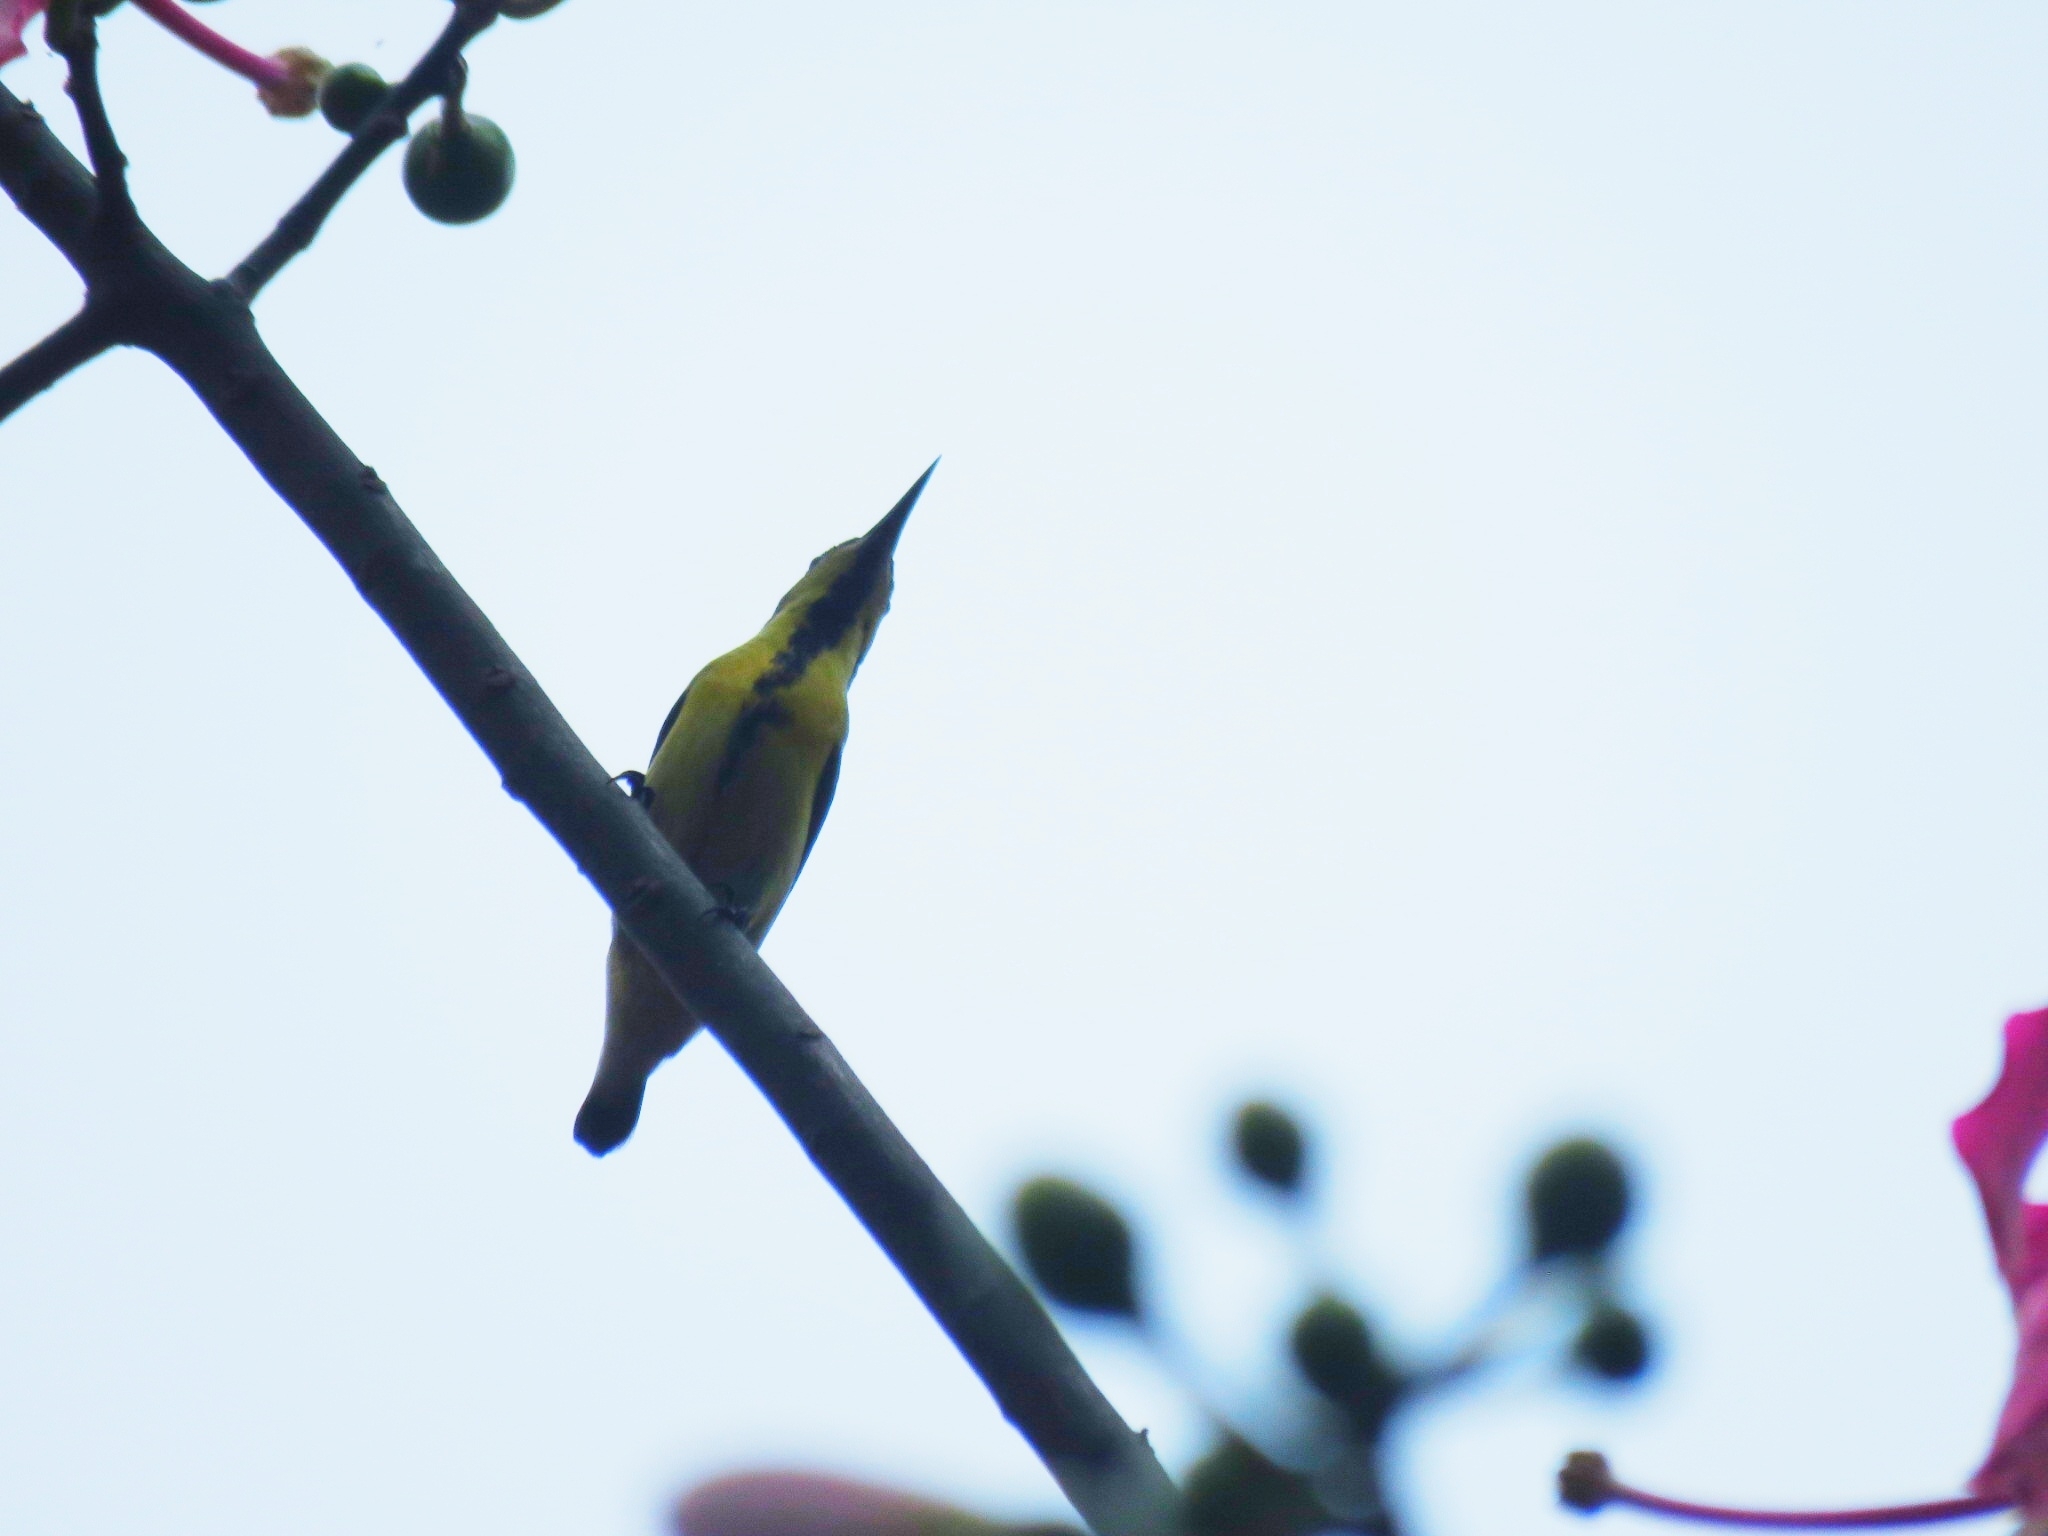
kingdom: Animalia
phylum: Chordata
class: Aves
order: Passeriformes
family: Nectariniidae
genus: Cinnyris
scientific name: Cinnyris asiaticus
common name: Purple sunbird
